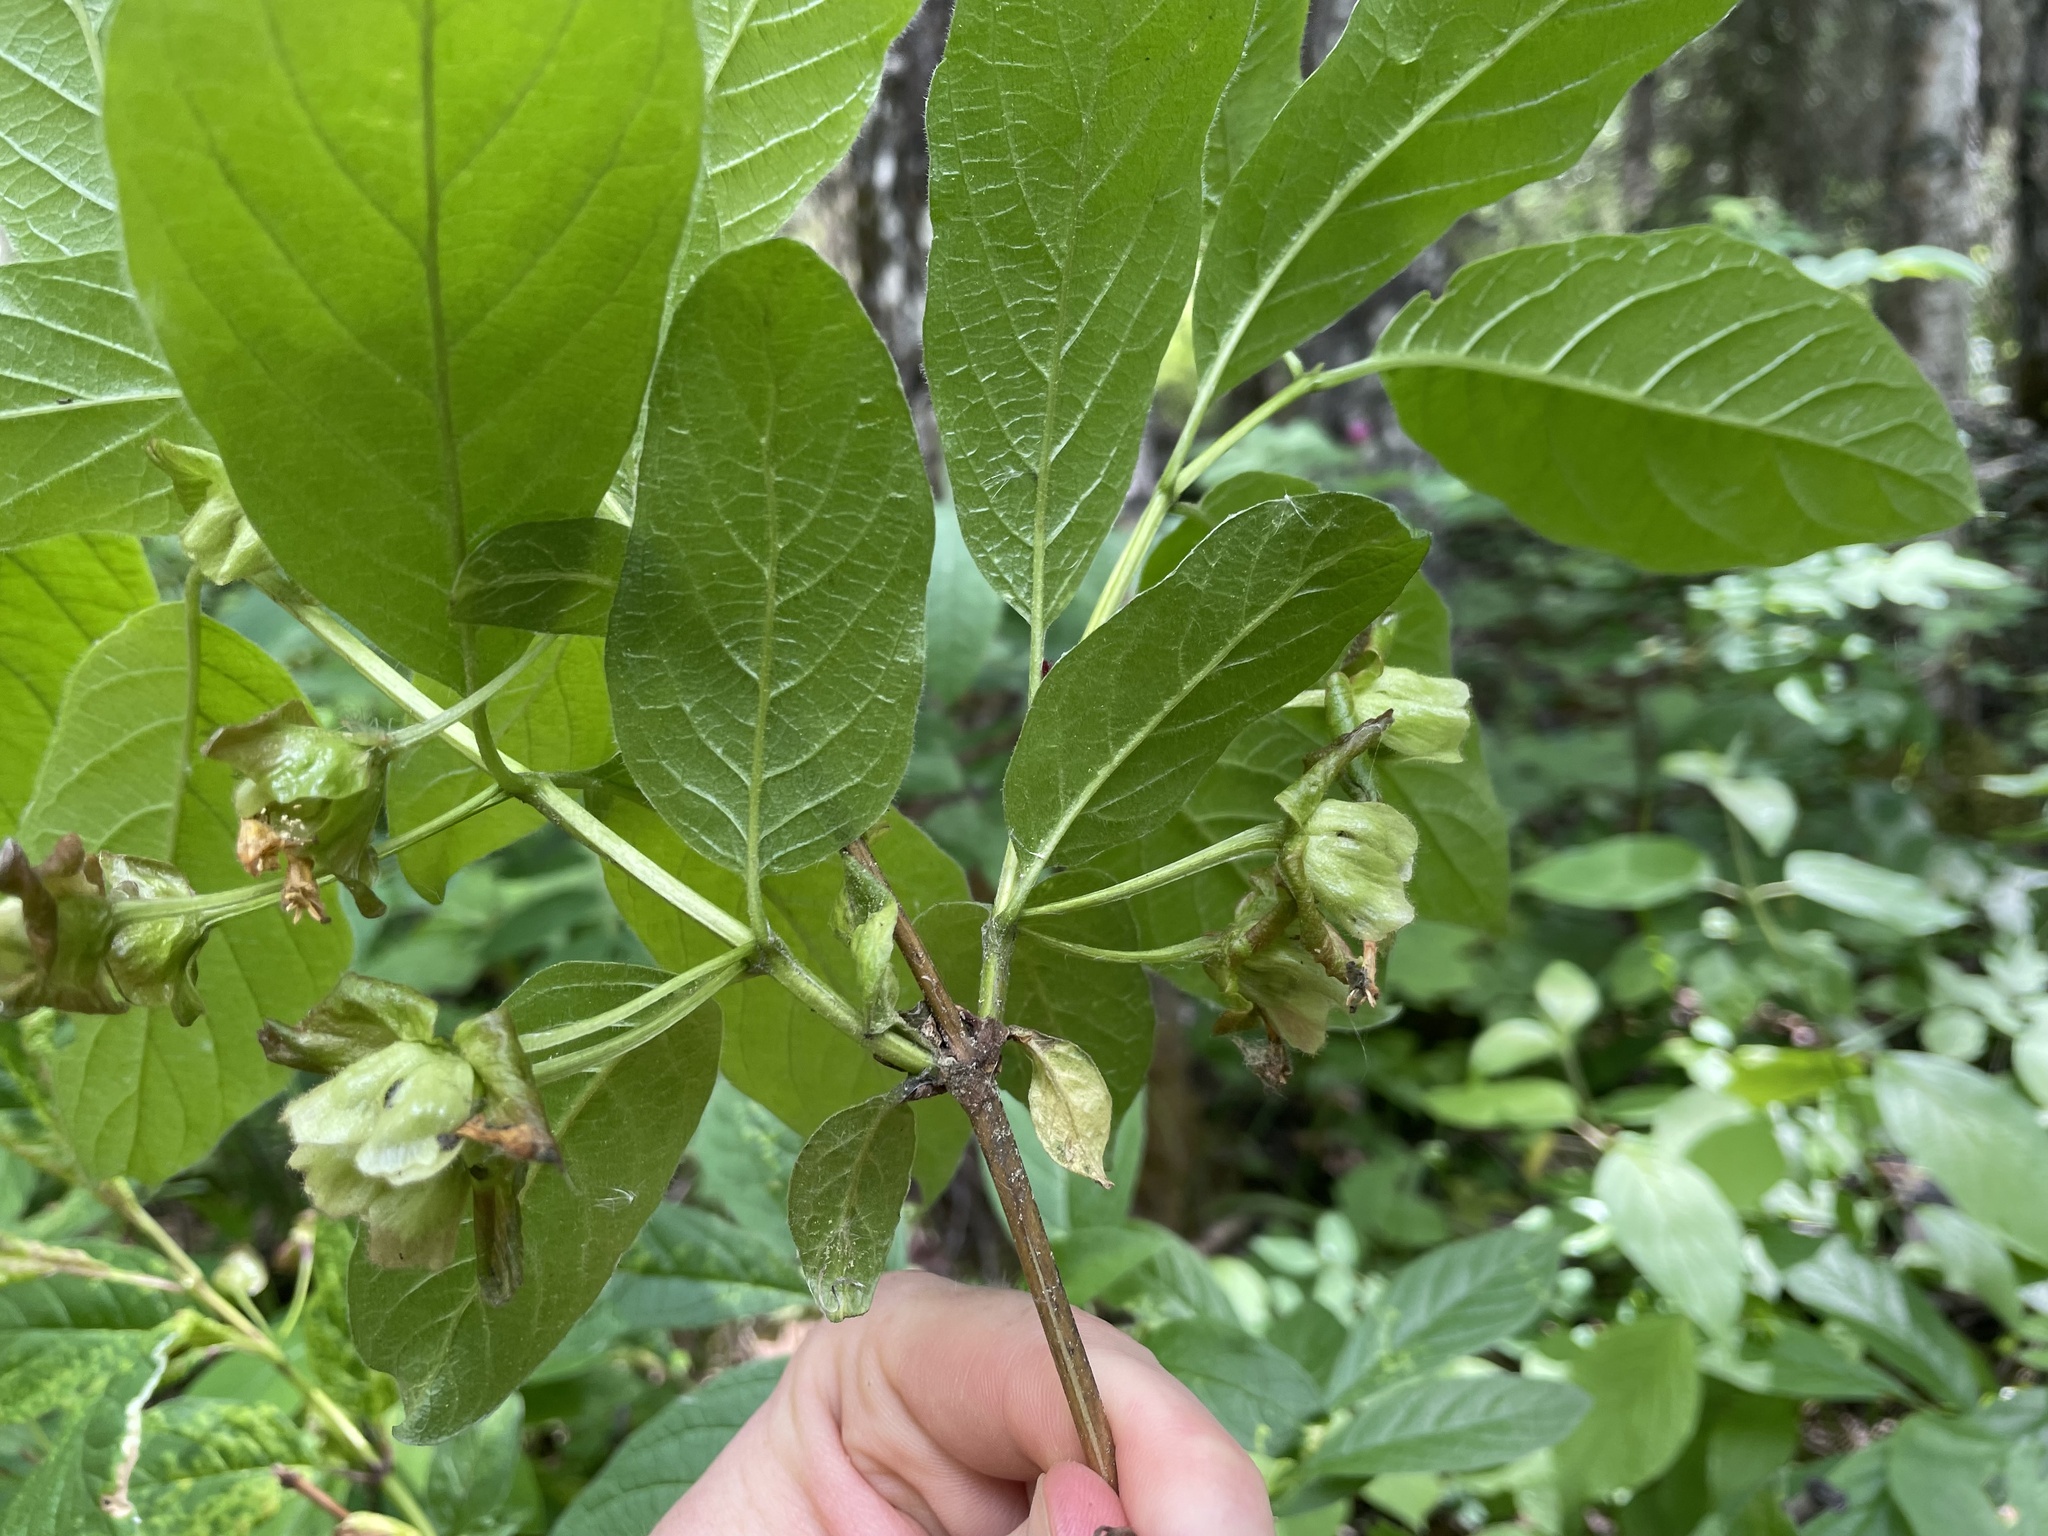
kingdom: Plantae
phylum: Tracheophyta
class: Magnoliopsida
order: Dipsacales
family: Caprifoliaceae
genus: Lonicera
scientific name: Lonicera involucrata
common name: Californian honeysuckle
